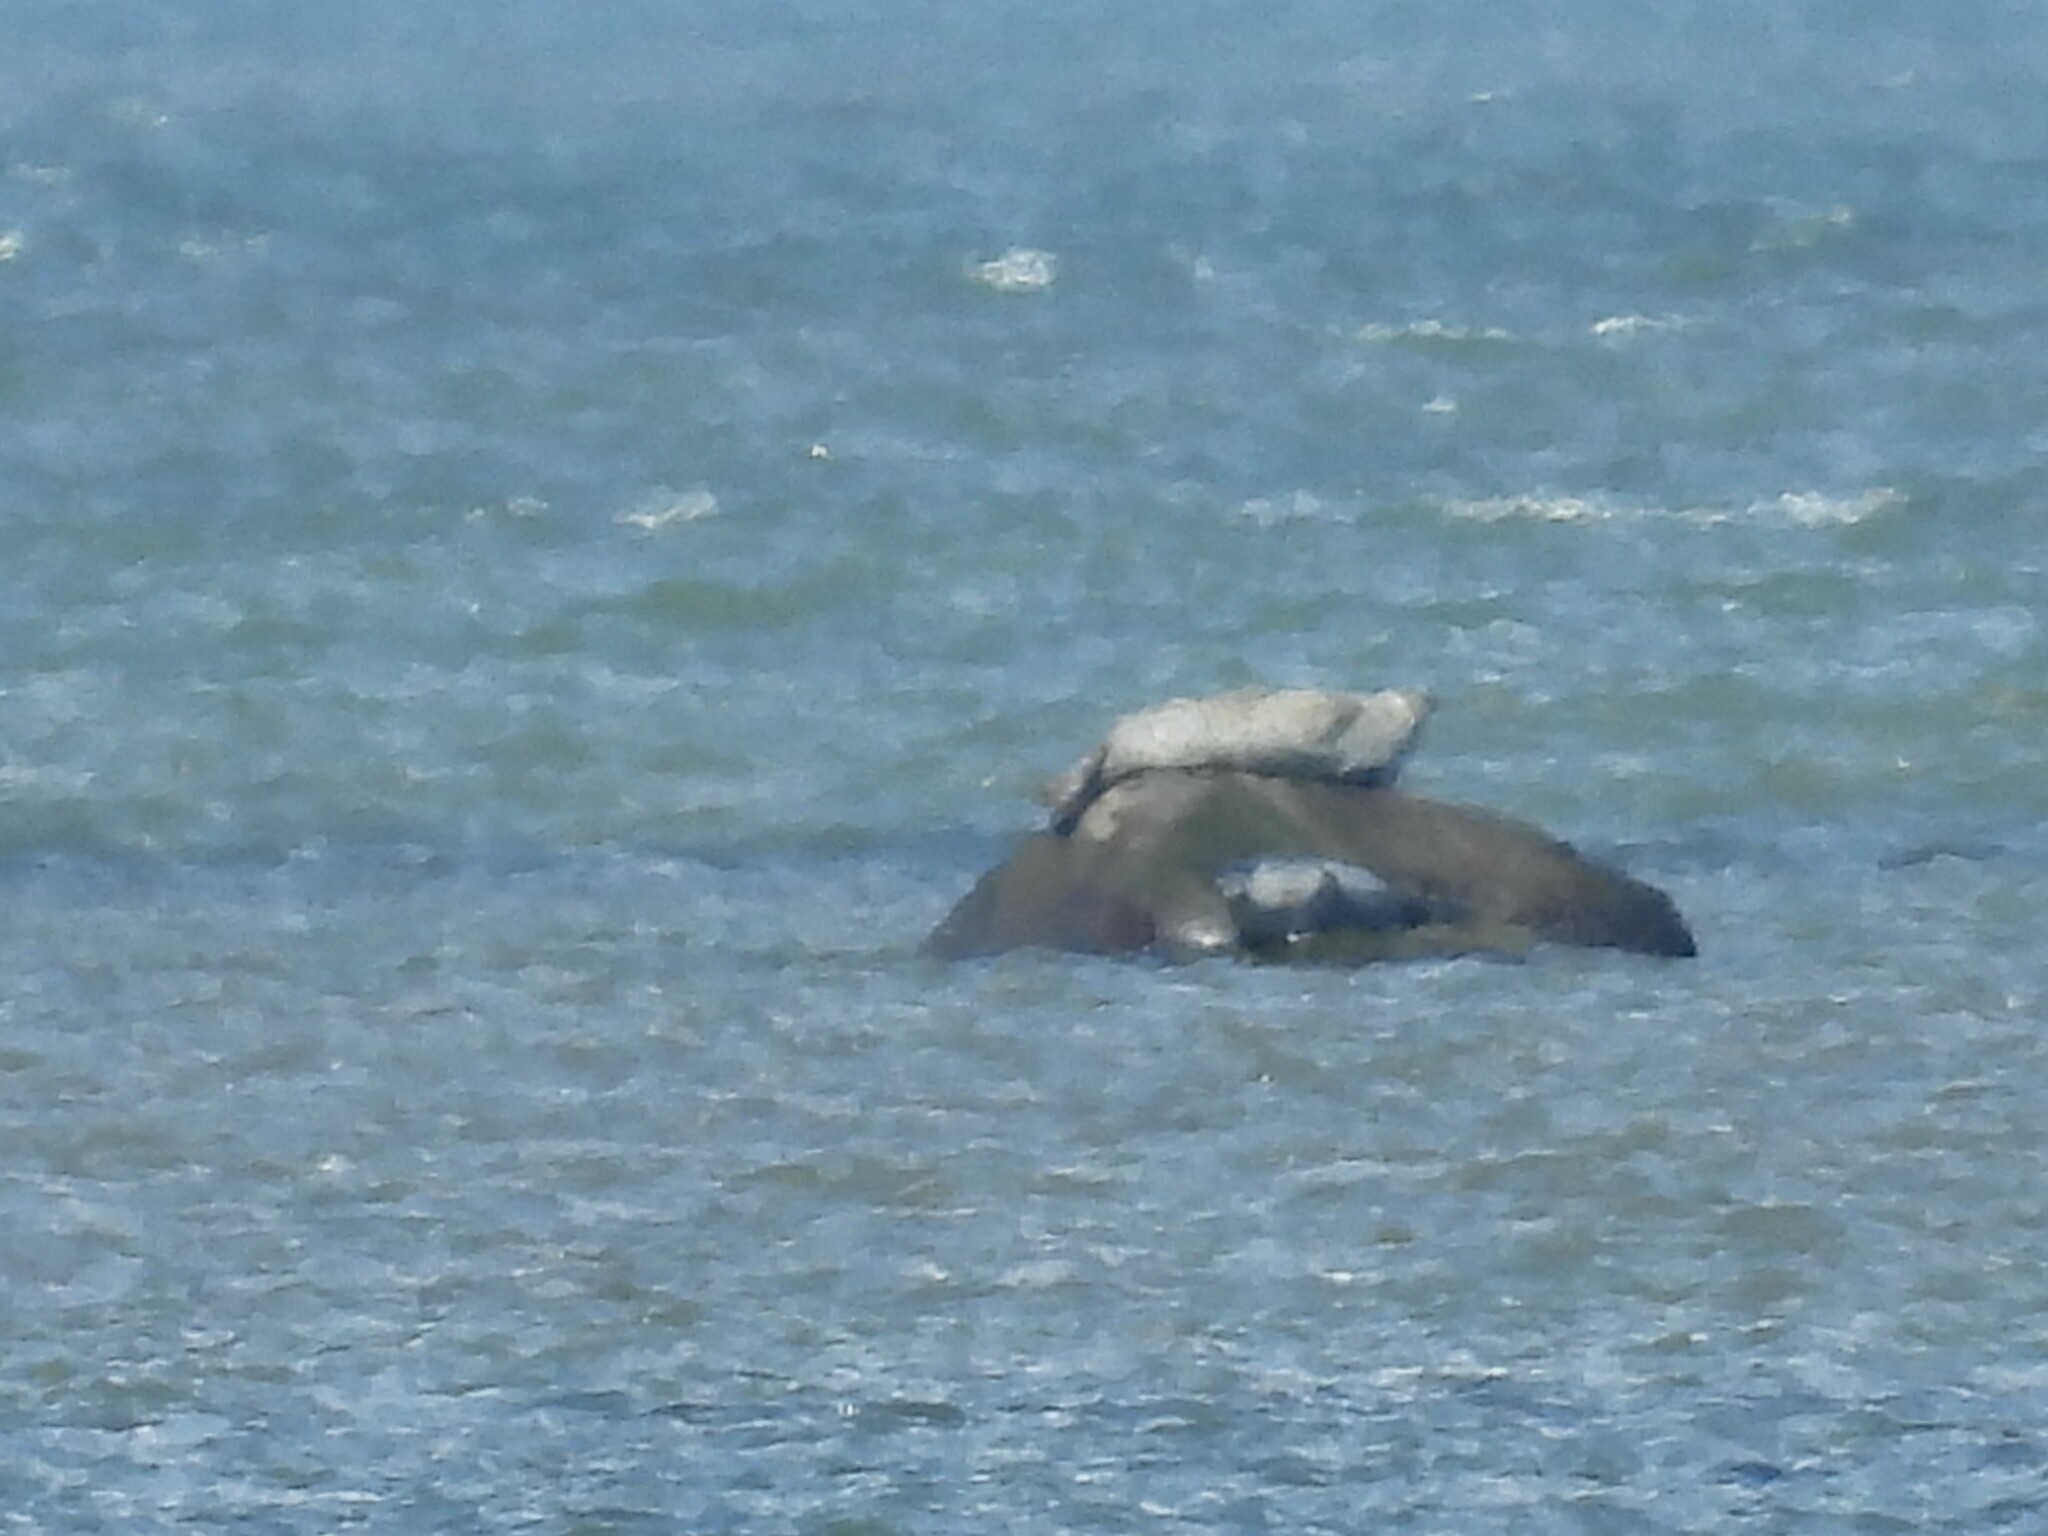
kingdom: Animalia
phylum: Chordata
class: Mammalia
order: Carnivora
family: Phocidae
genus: Phoca
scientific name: Phoca vitulina
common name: Harbor seal
